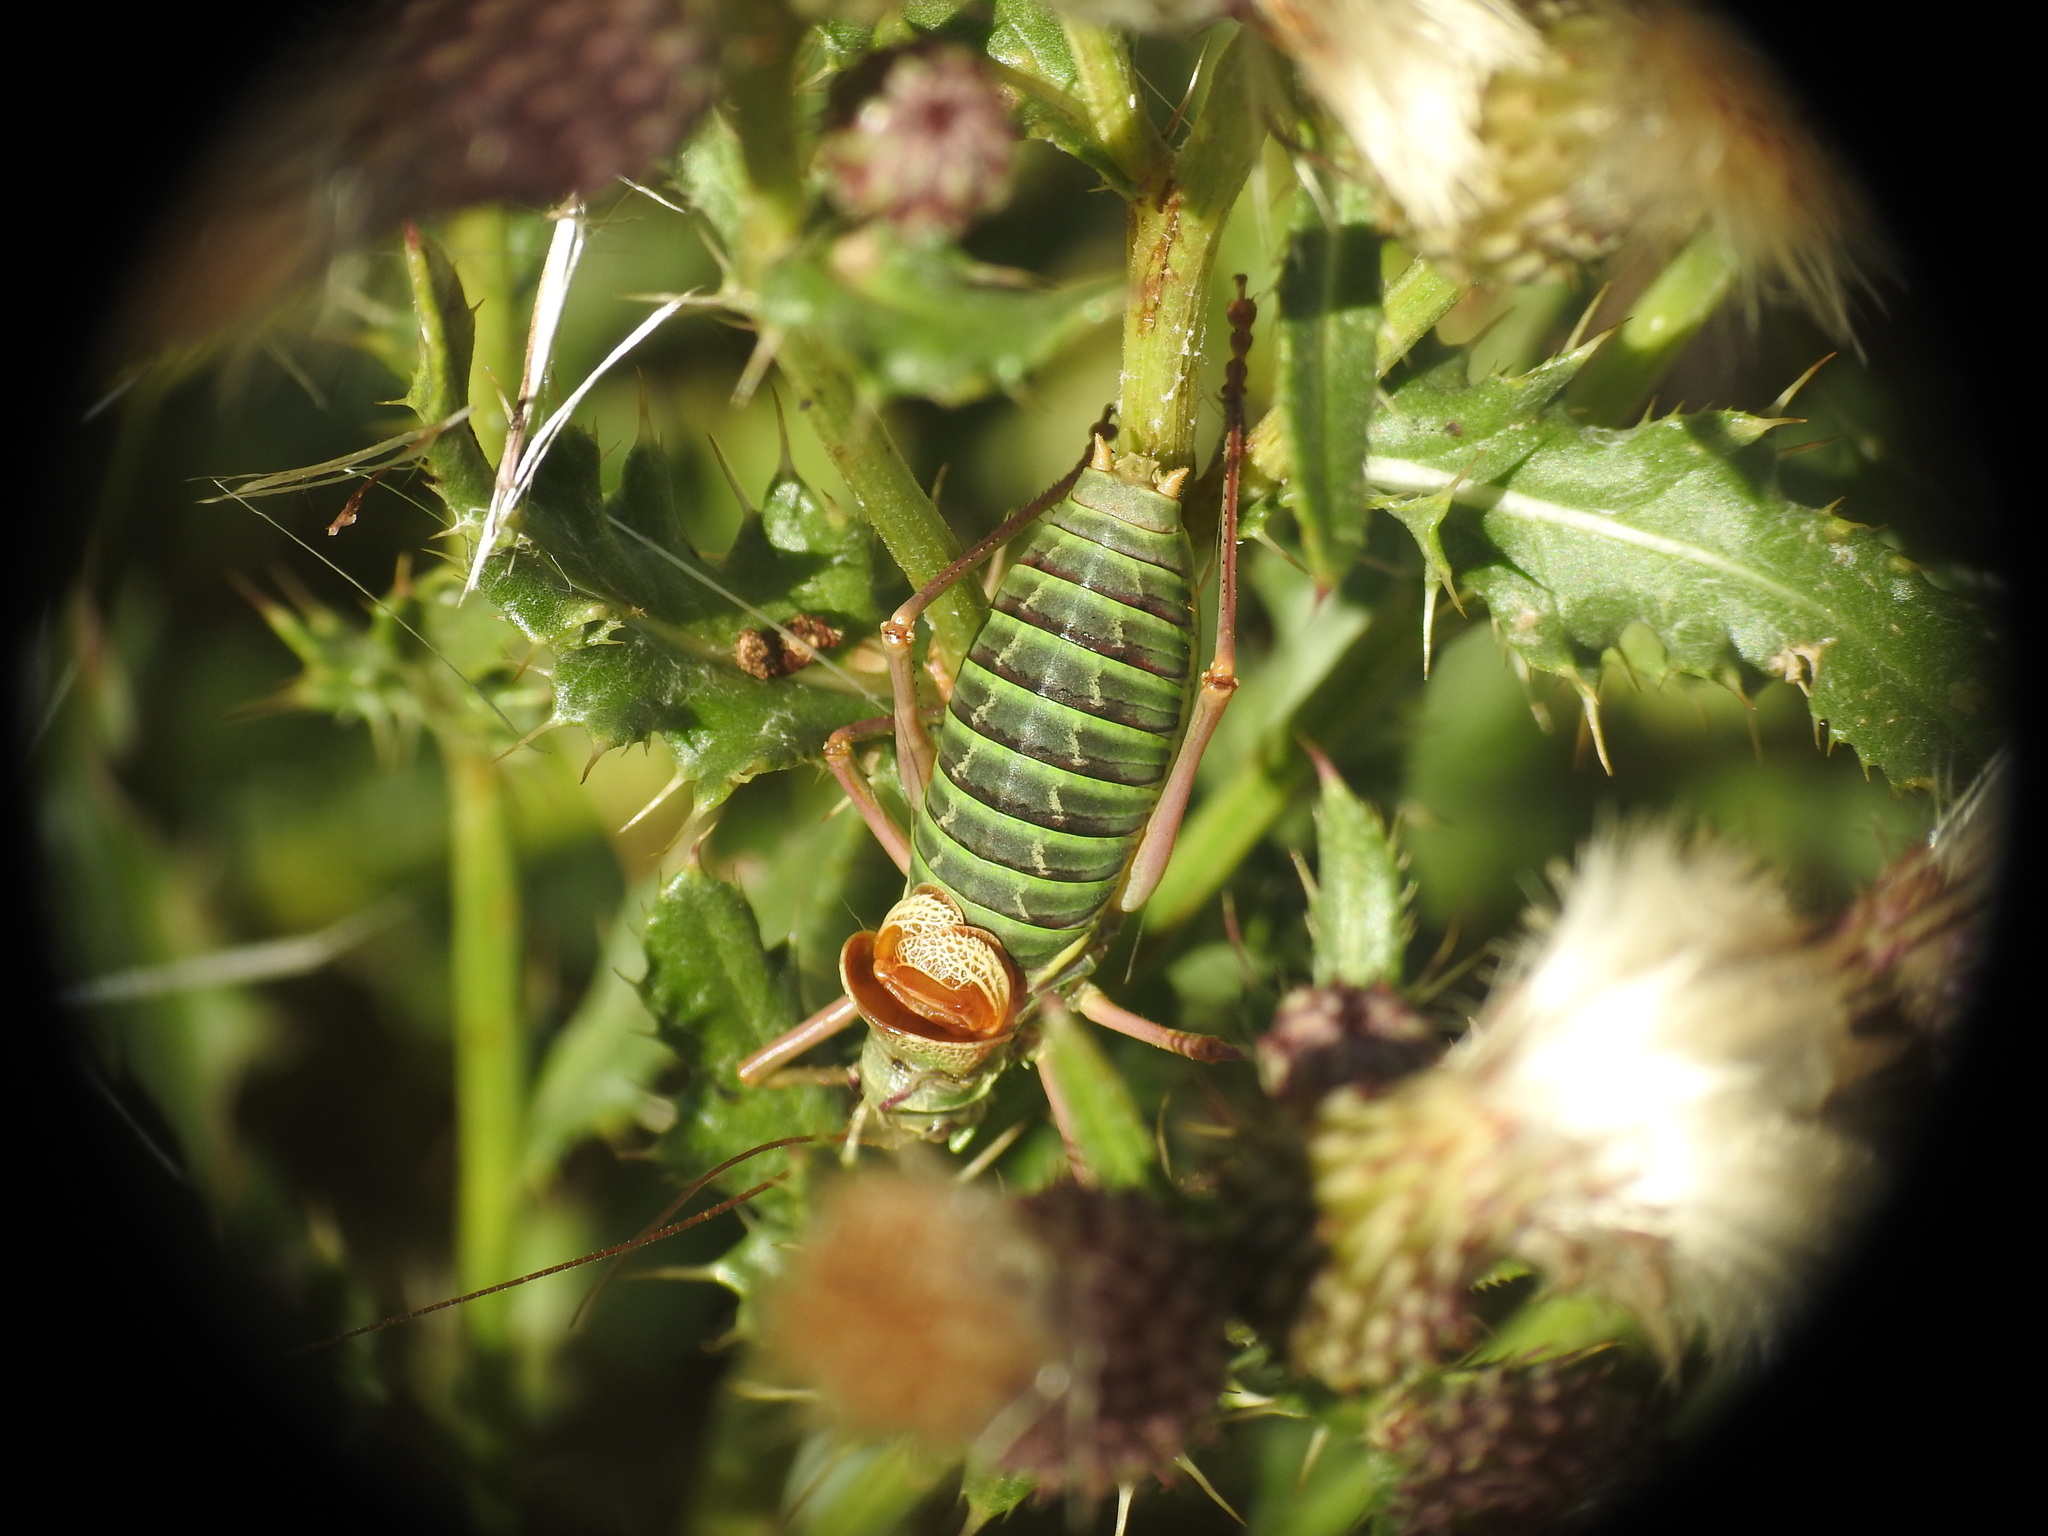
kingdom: Animalia
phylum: Arthropoda
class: Insecta
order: Orthoptera
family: Tettigoniidae
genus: Ephippiger
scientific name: Ephippiger diurnus
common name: Western saddle bush-cricket
